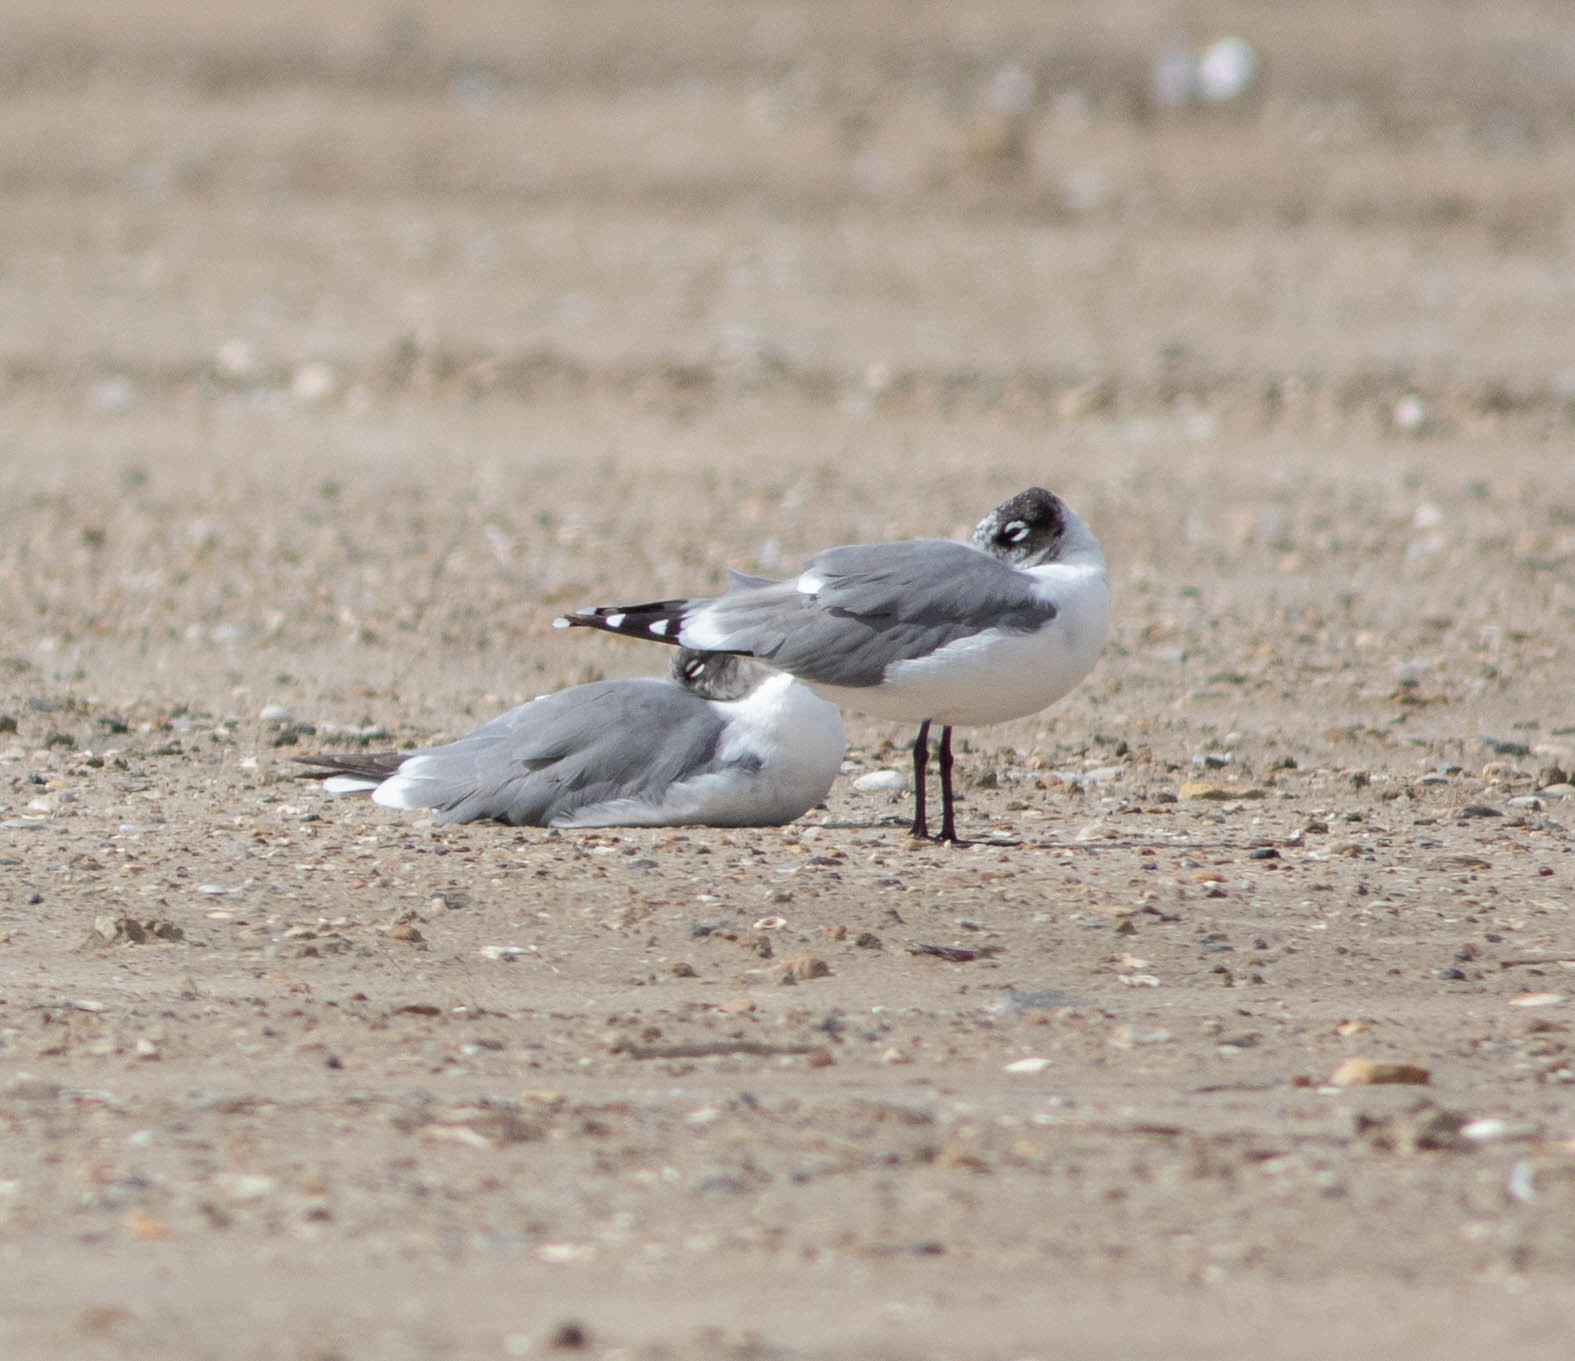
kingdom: Animalia
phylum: Chordata
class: Aves
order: Charadriiformes
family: Laridae
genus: Leucophaeus
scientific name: Leucophaeus atricilla
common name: Laughing gull
